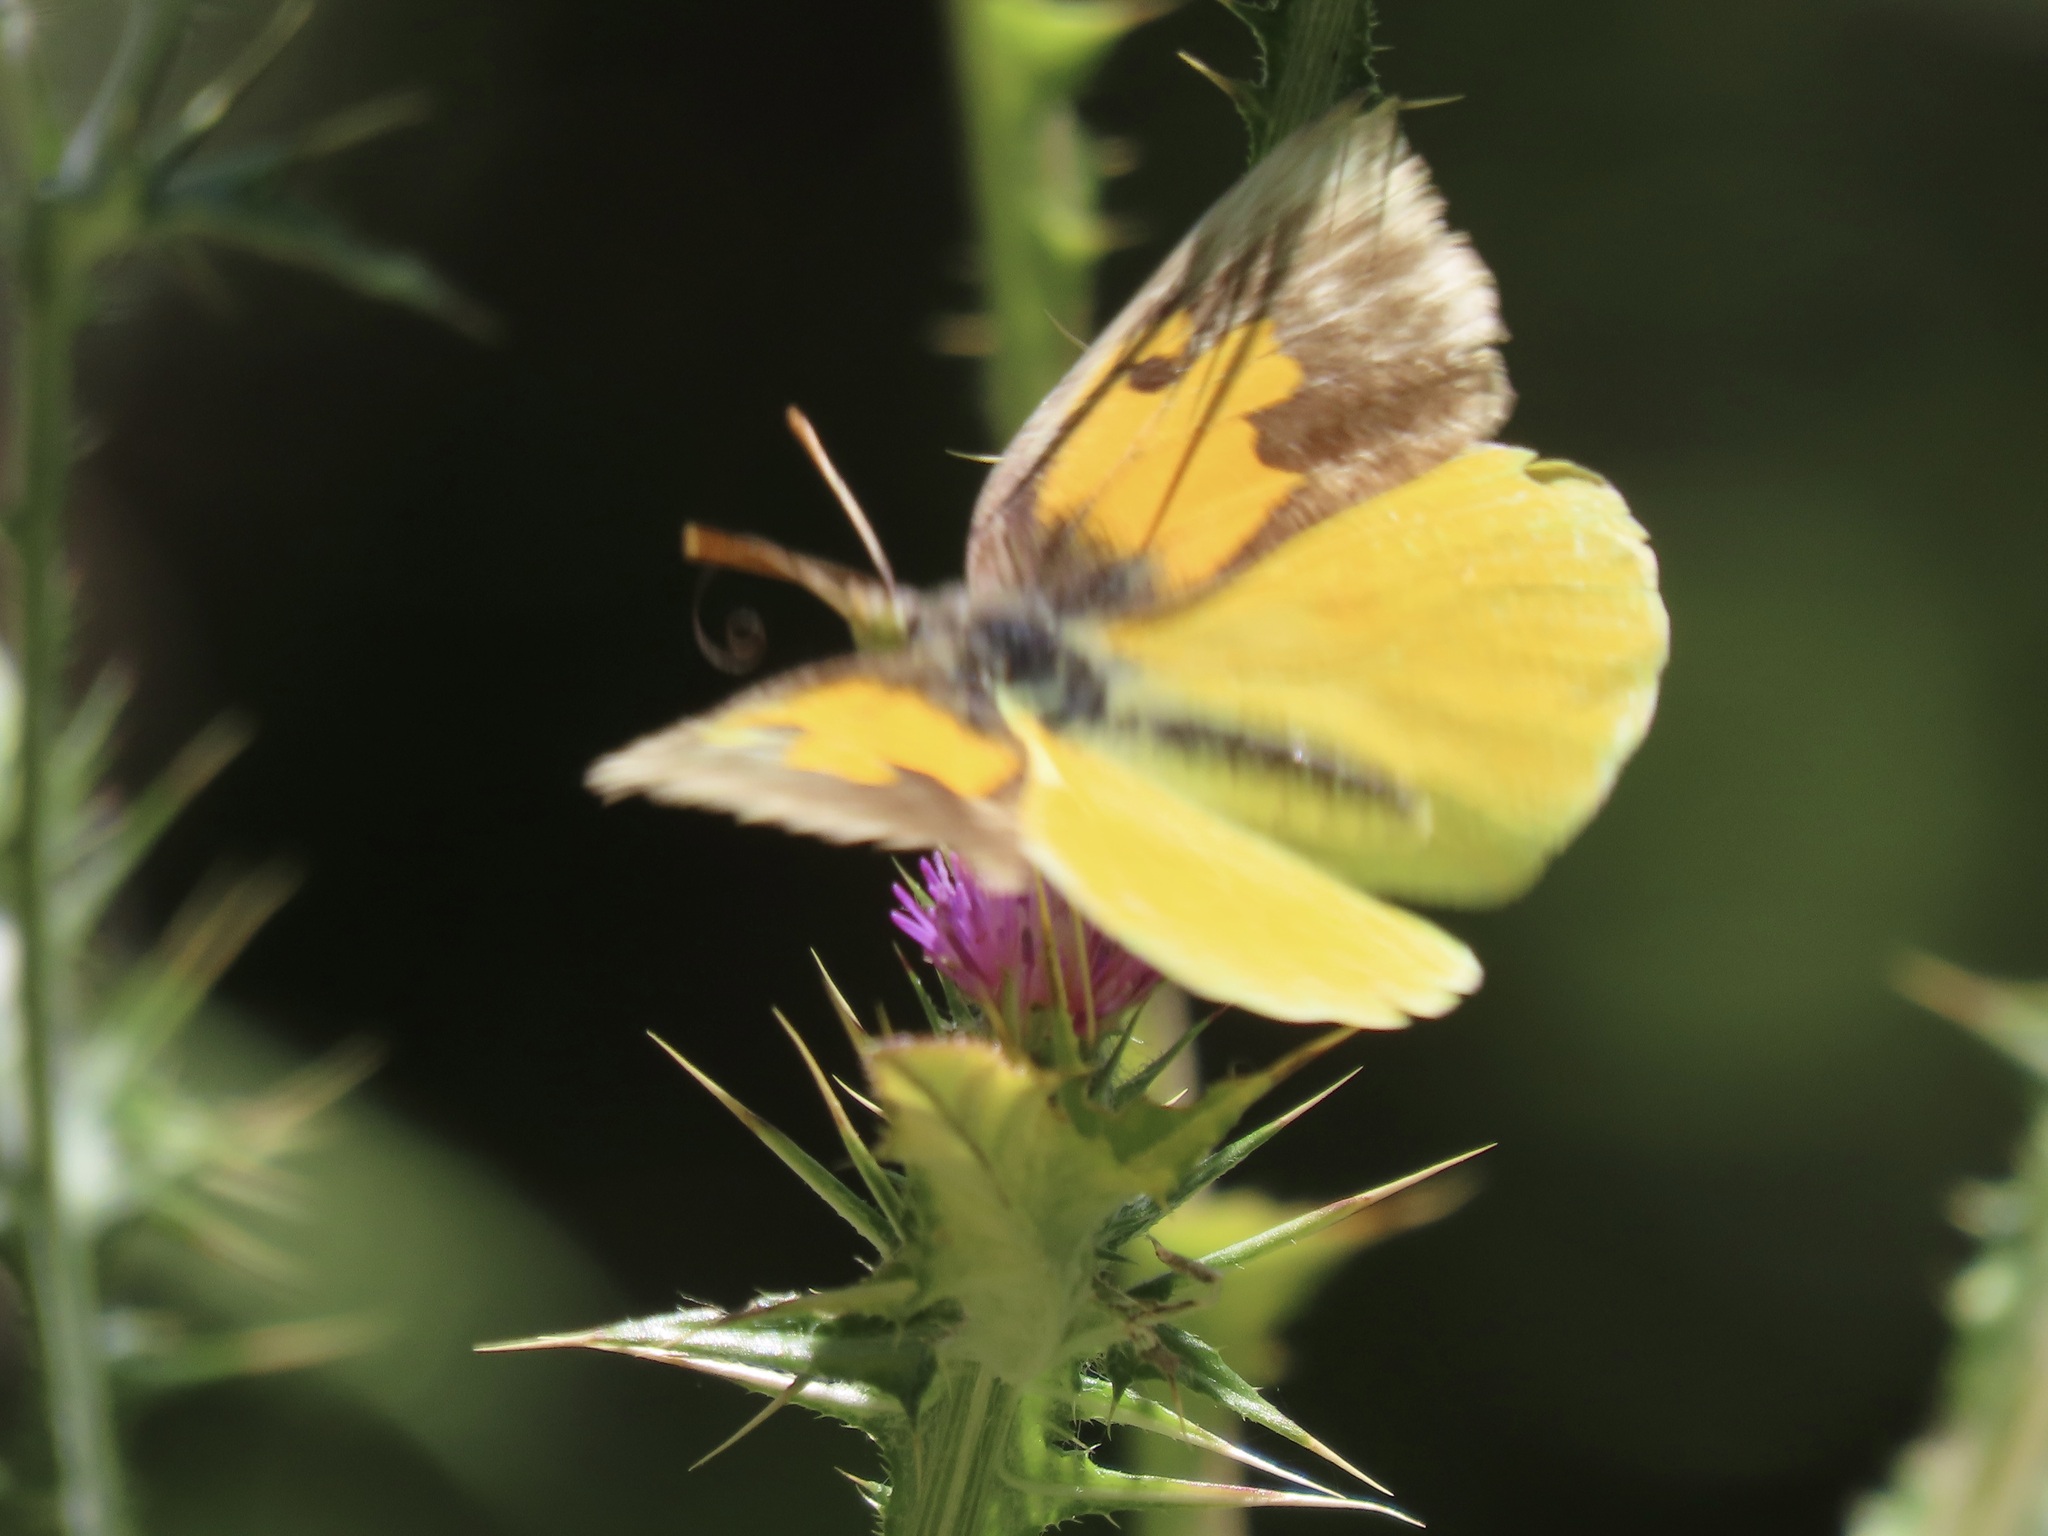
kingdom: Animalia
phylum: Arthropoda
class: Insecta
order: Lepidoptera
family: Pieridae
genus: Zerene
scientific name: Zerene eurydice
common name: California dogface
